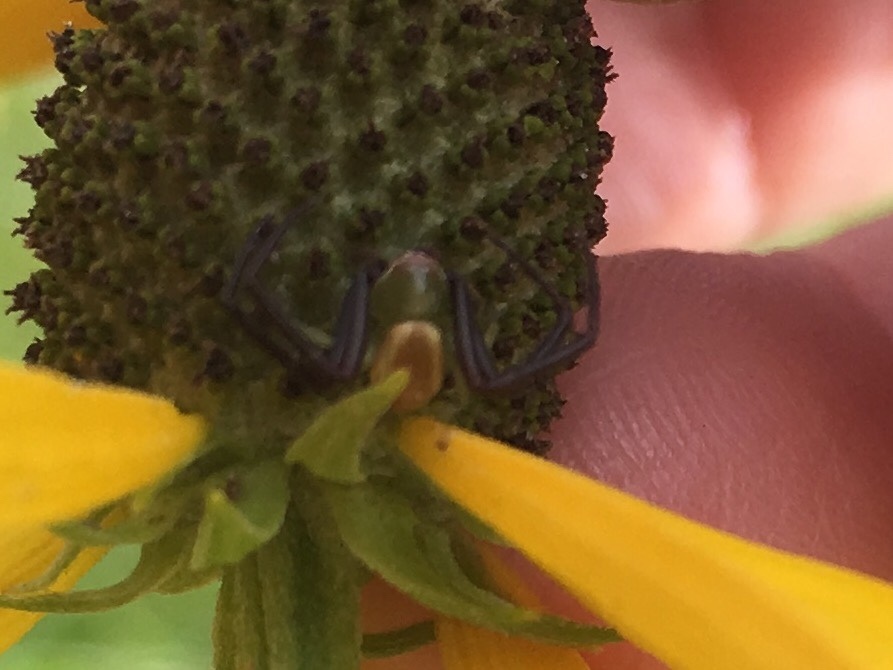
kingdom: Animalia
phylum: Arthropoda
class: Arachnida
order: Araneae
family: Thomisidae
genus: Misumenoides
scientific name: Misumenoides formosipes
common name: White-banded crab spider
